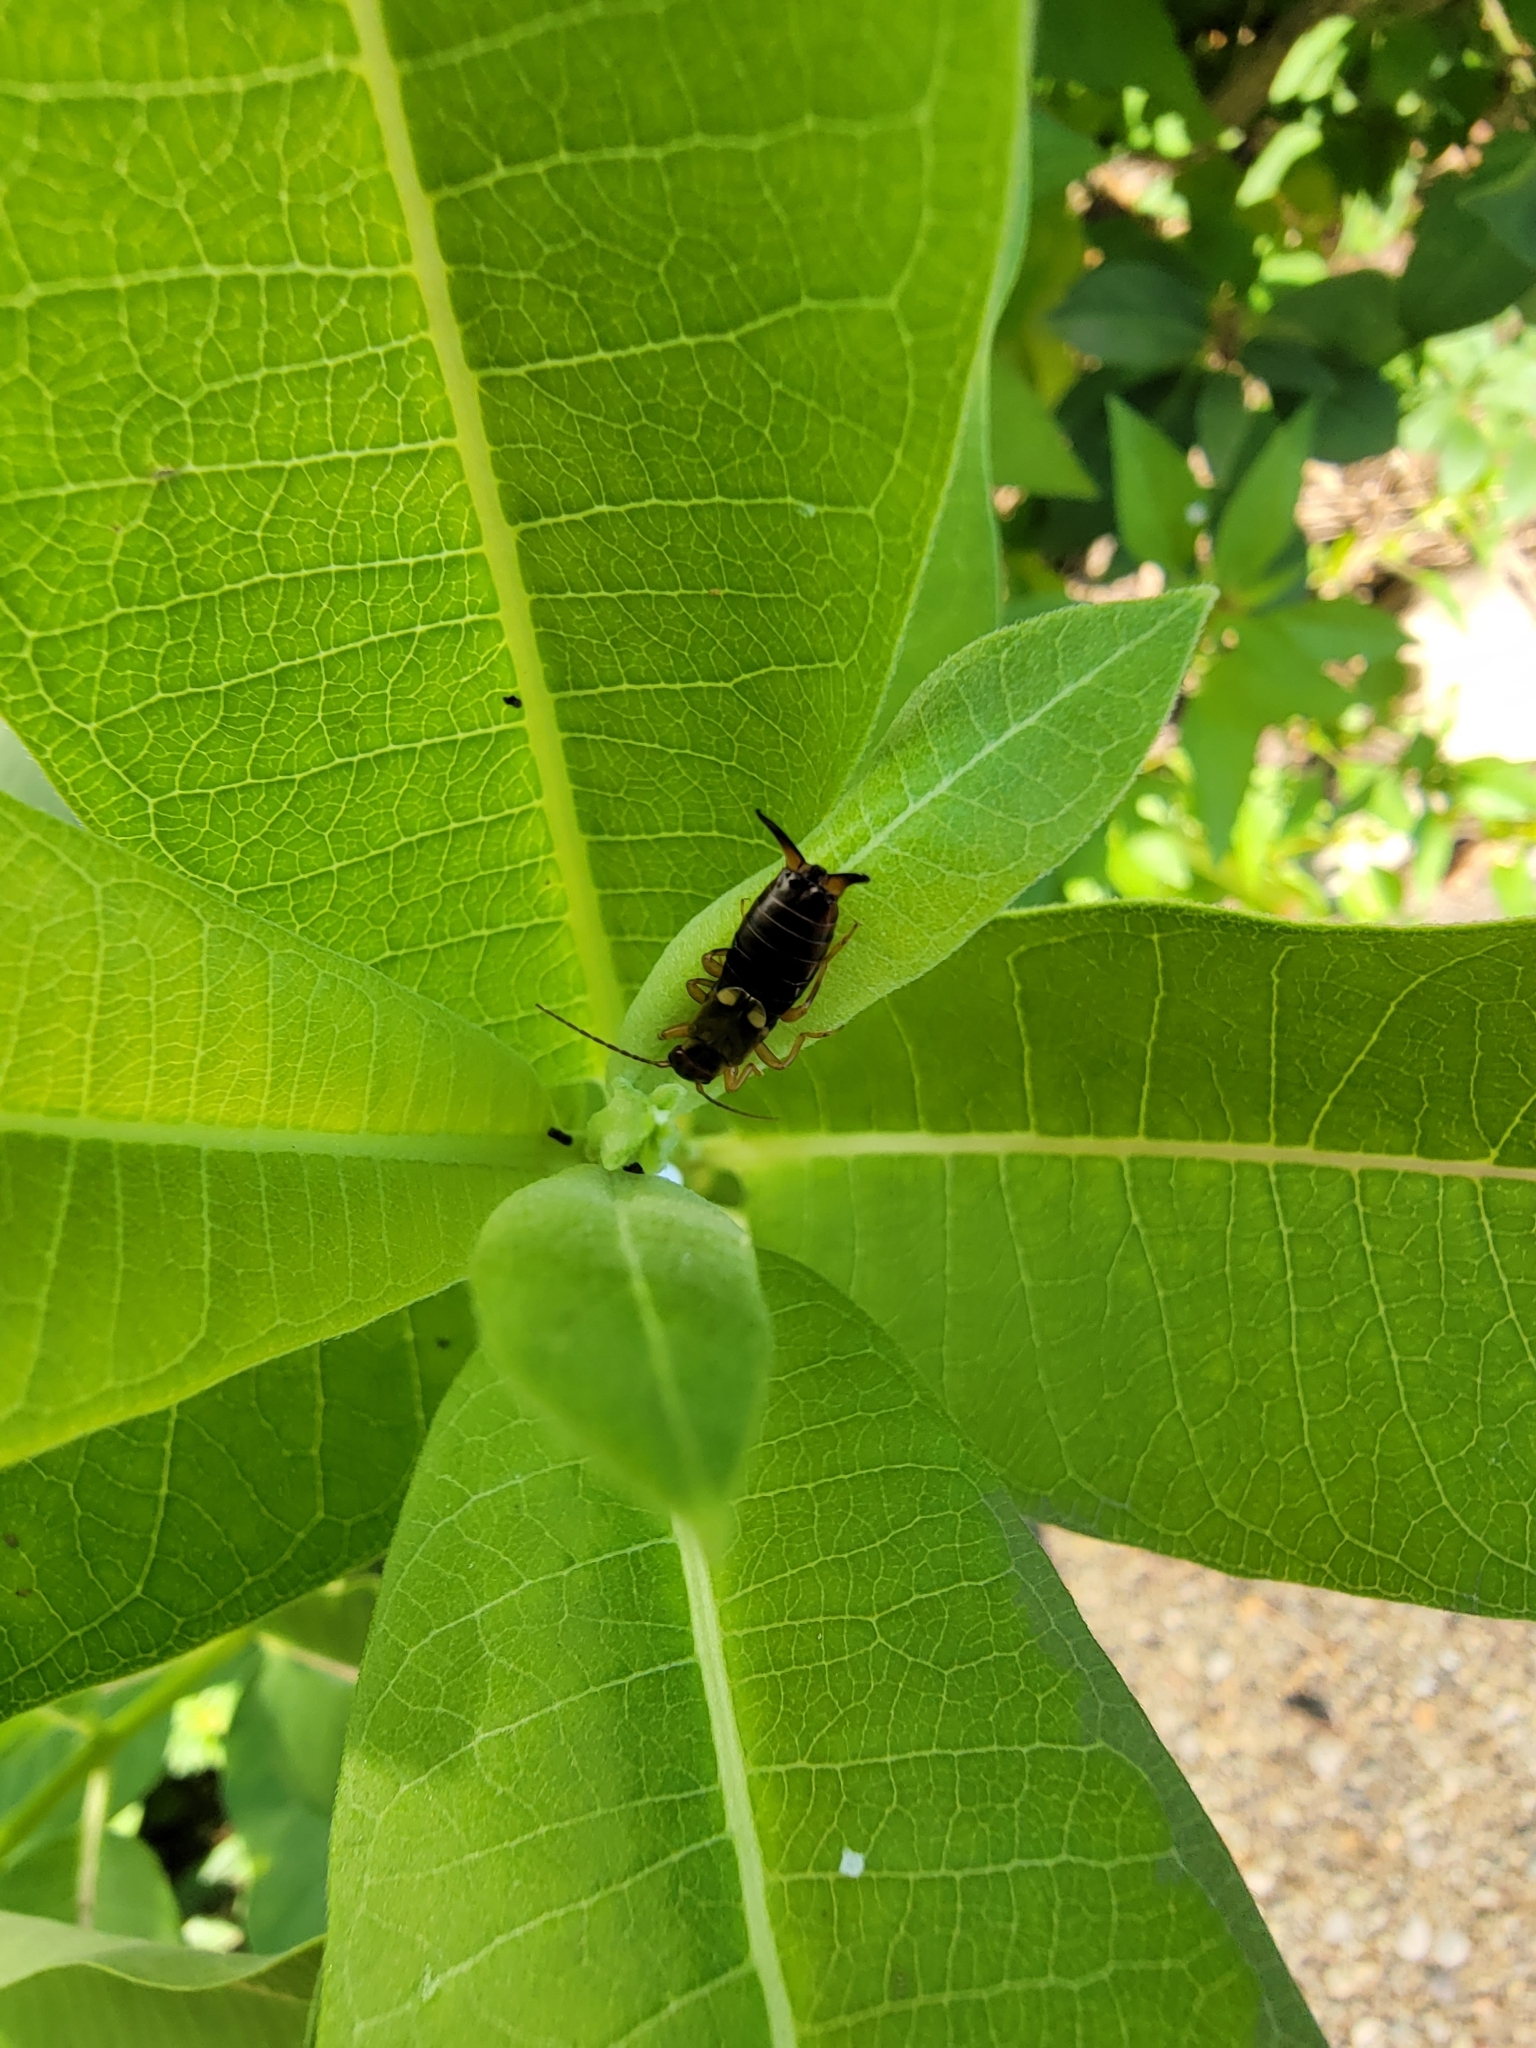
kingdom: Animalia
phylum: Arthropoda
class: Insecta
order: Dermaptera
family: Forficulidae
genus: Forficula
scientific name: Forficula
